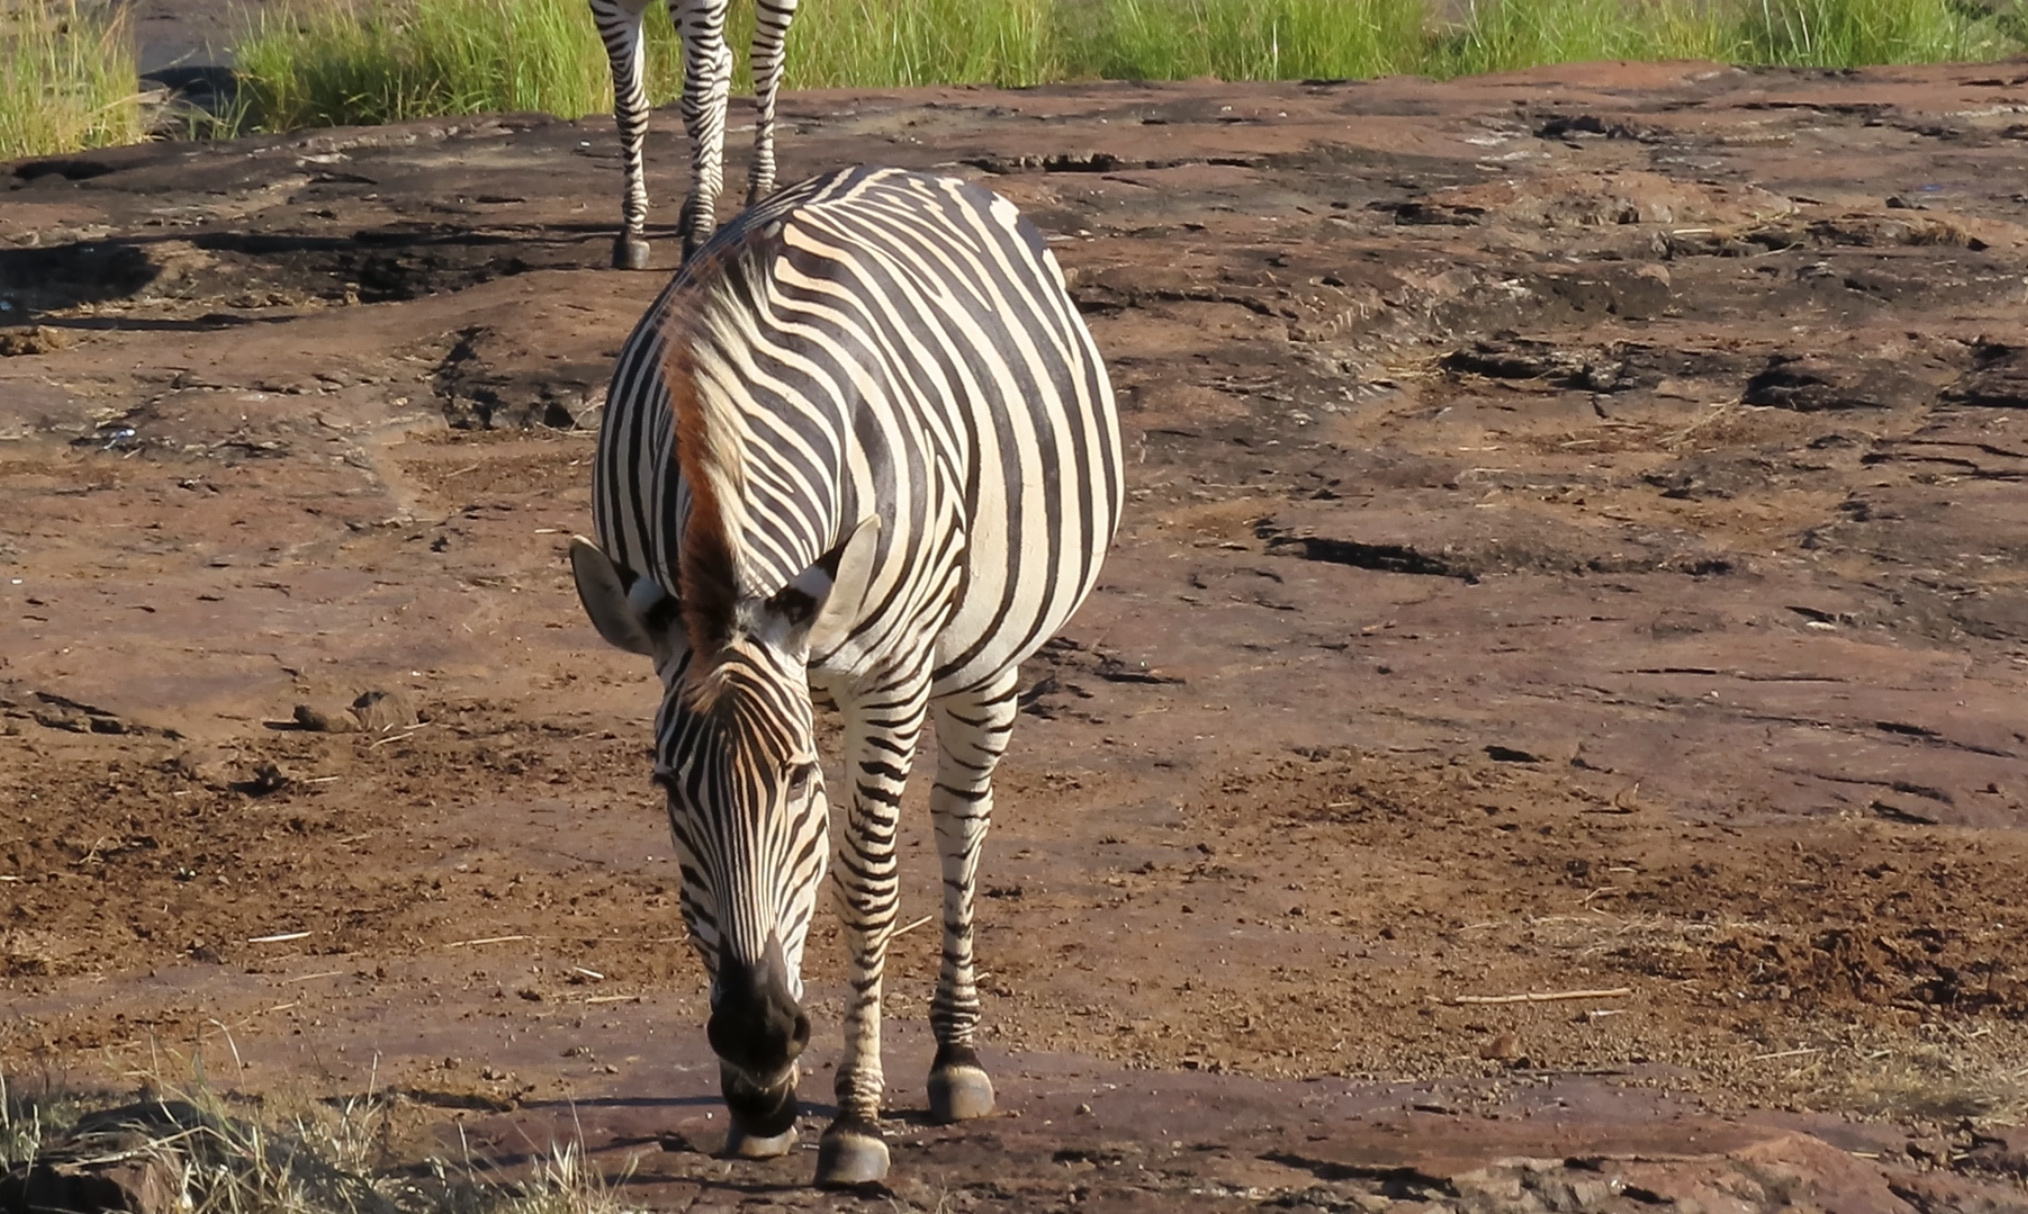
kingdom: Animalia
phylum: Chordata
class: Mammalia
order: Perissodactyla
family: Equidae
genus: Equus
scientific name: Equus quagga
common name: Plains zebra
